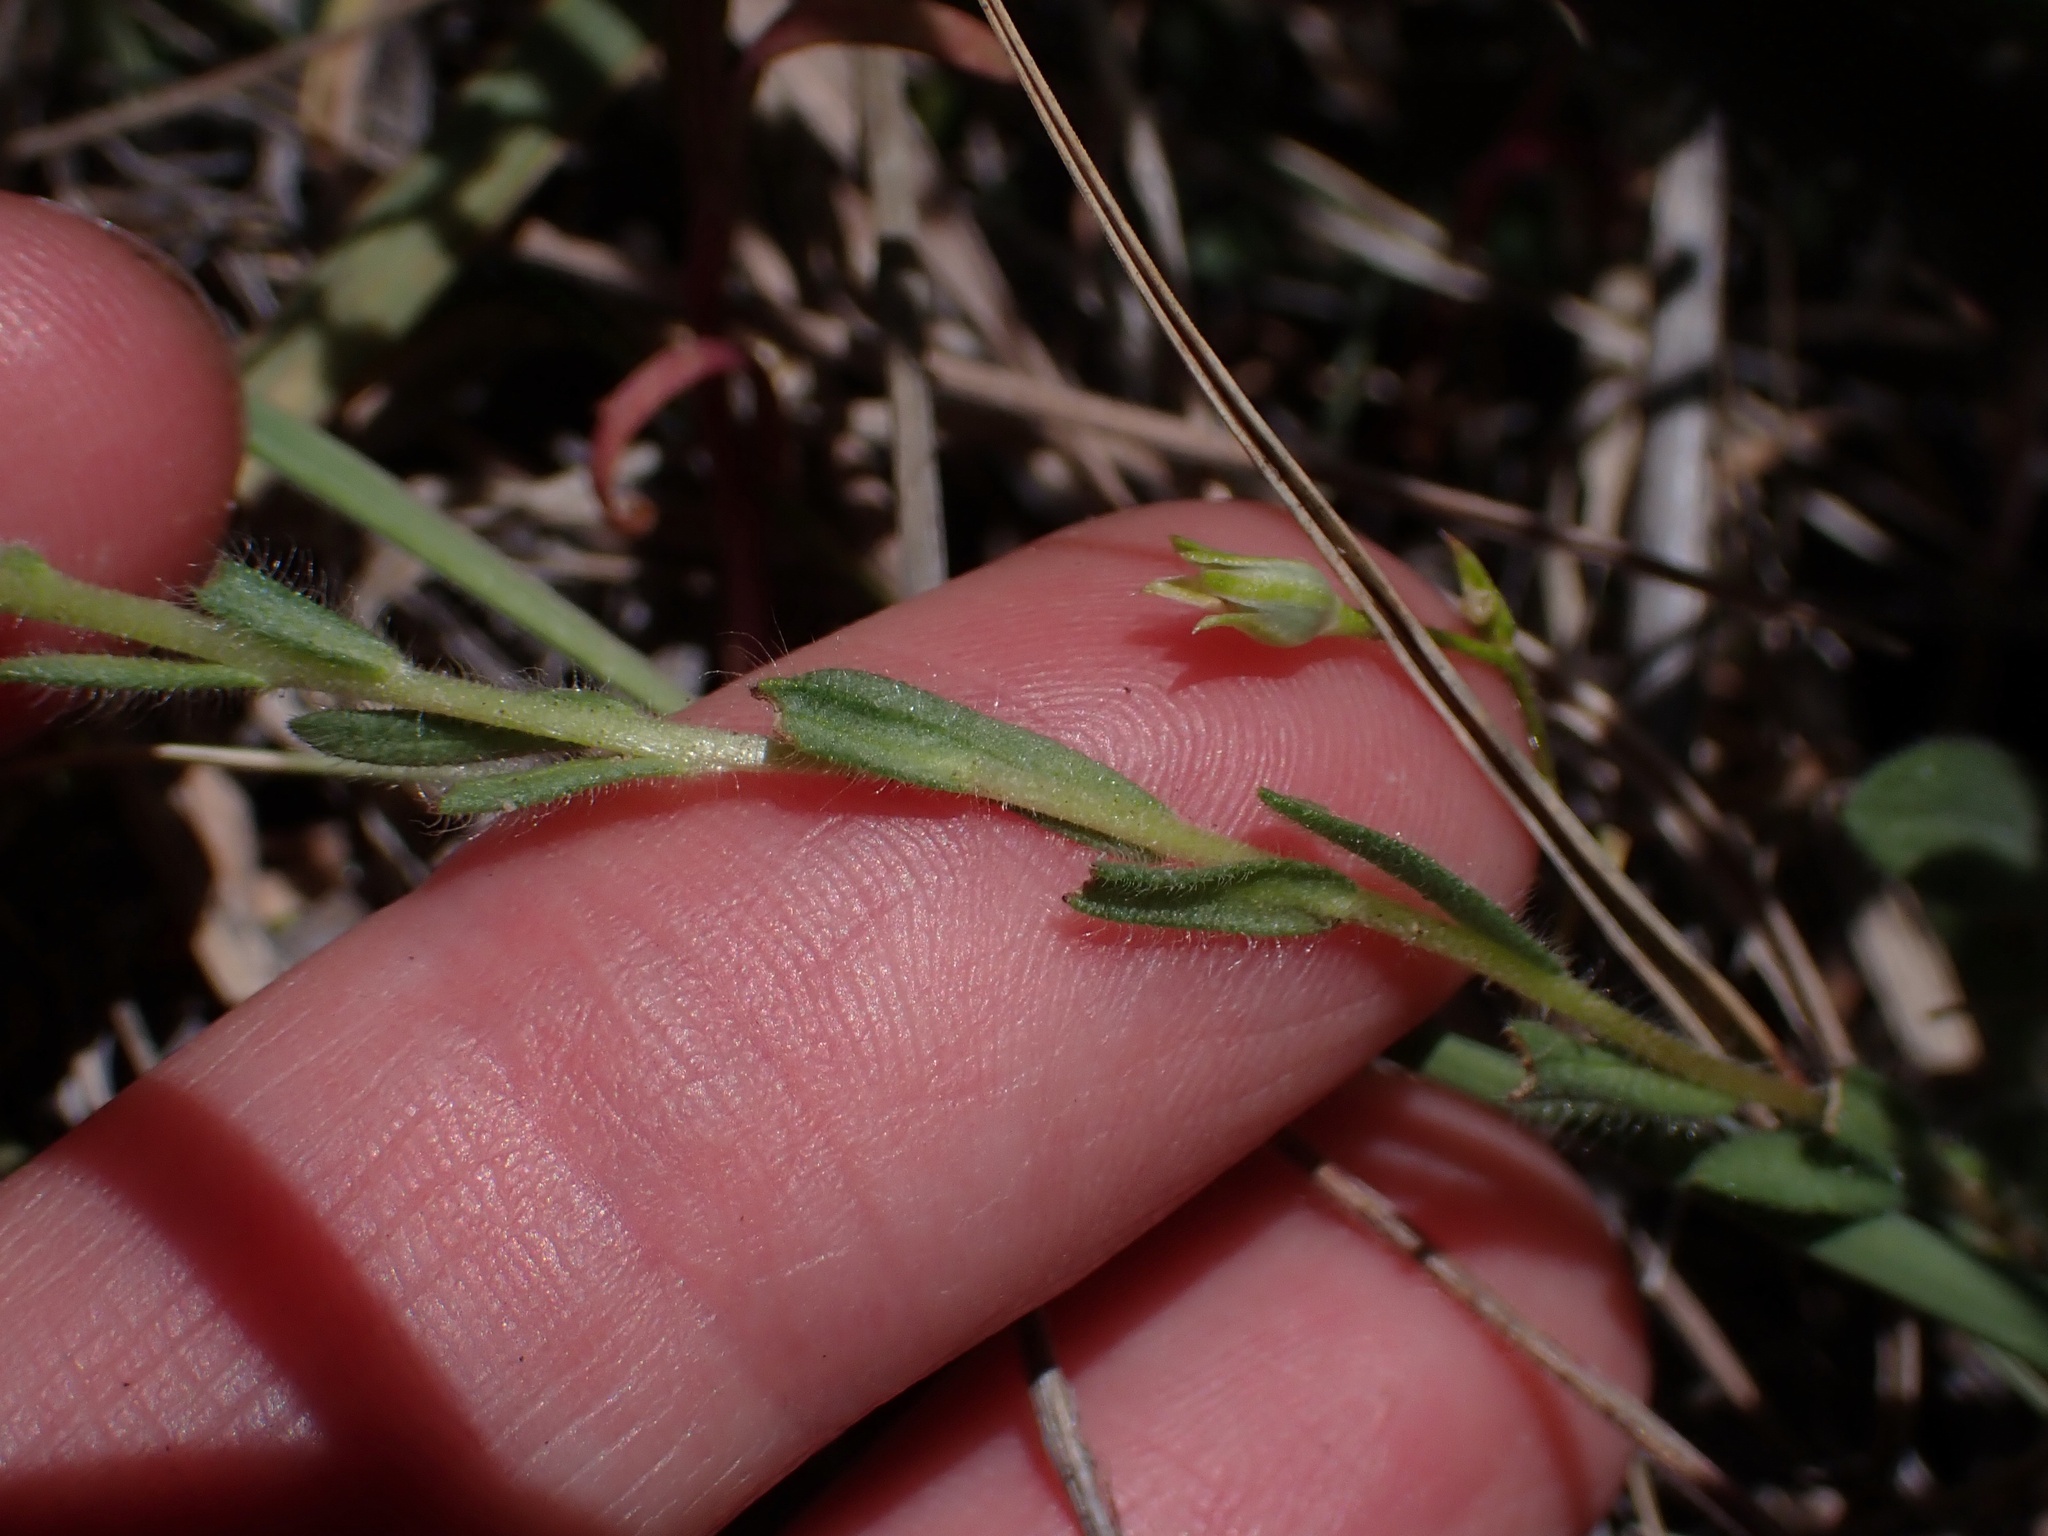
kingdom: Plantae
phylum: Tracheophyta
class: Magnoliopsida
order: Asterales
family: Asteraceae
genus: Layia
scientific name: Layia platyglossa
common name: Tidy-tips
